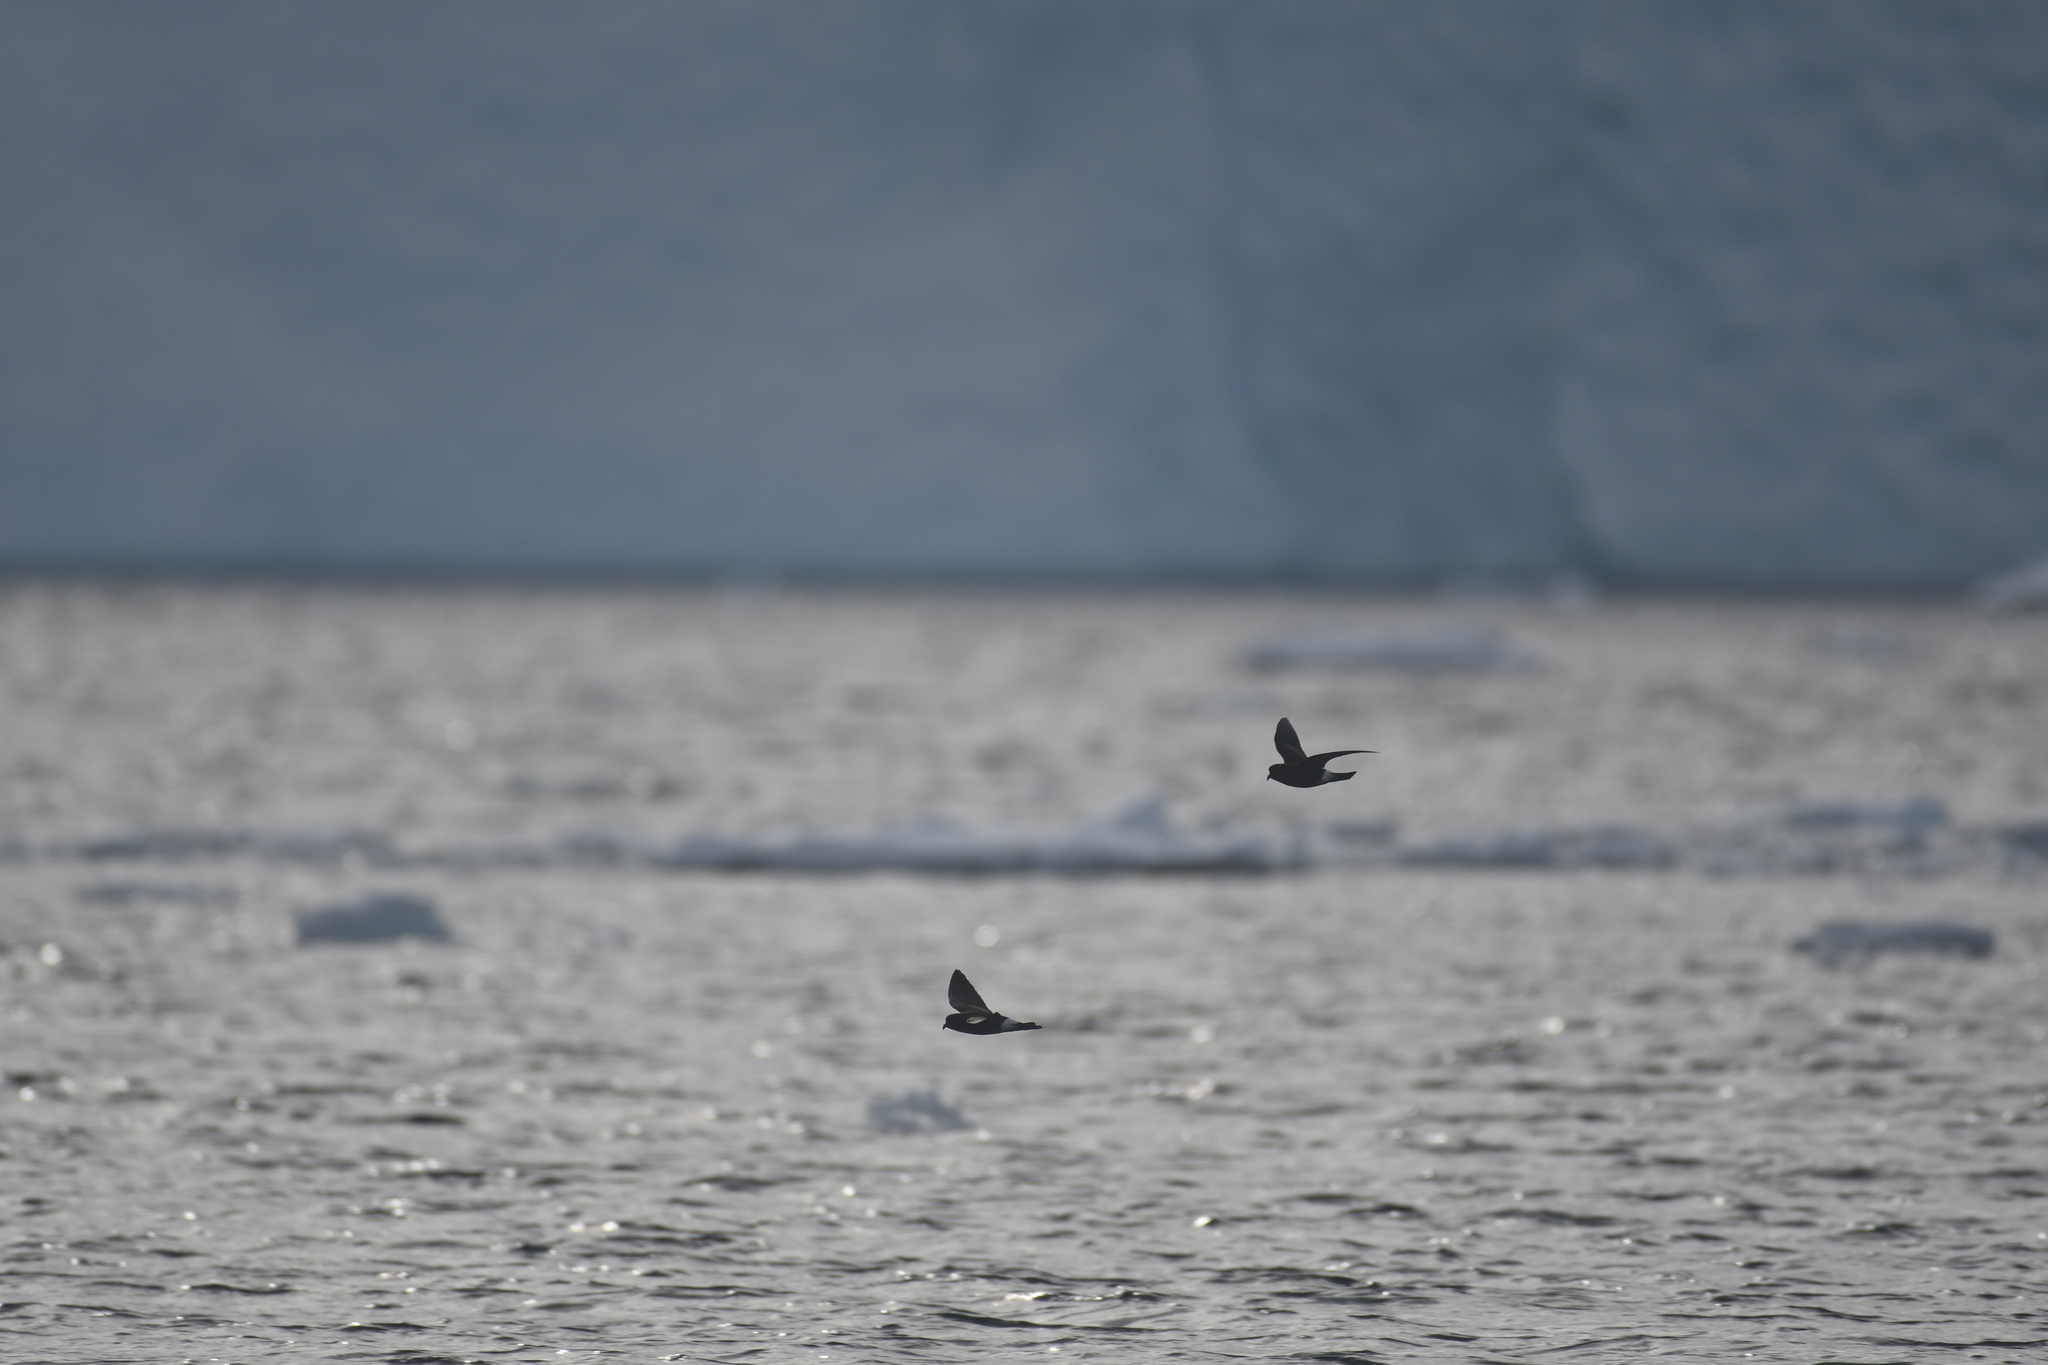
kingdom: Animalia
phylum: Chordata
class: Aves
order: Procellariiformes
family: Hydrobatidae
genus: Oceanites
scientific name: Oceanites oceanicus
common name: Wilson's storm petrel
